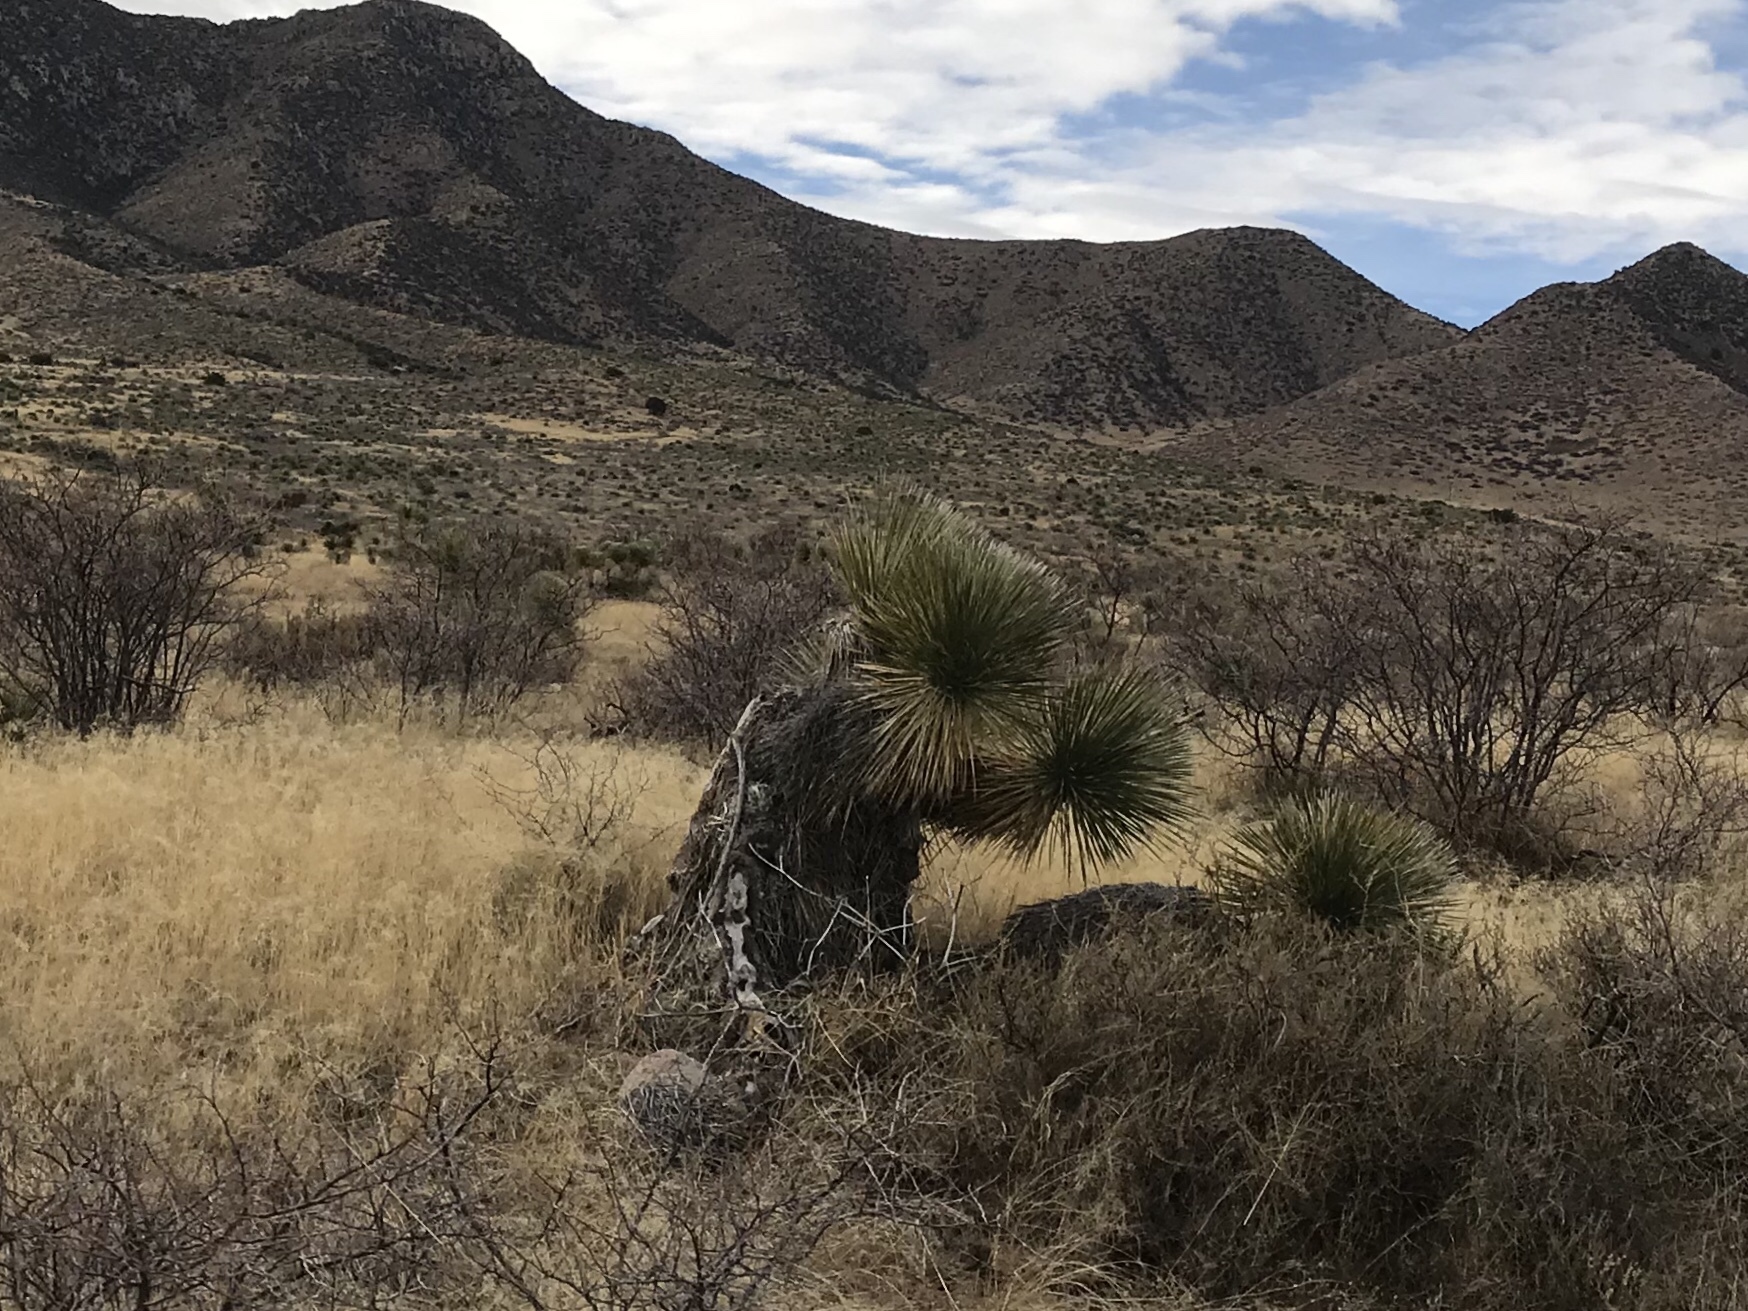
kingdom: Plantae
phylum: Tracheophyta
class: Liliopsida
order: Asparagales
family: Asparagaceae
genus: Yucca
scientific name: Yucca elata
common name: Palmella
